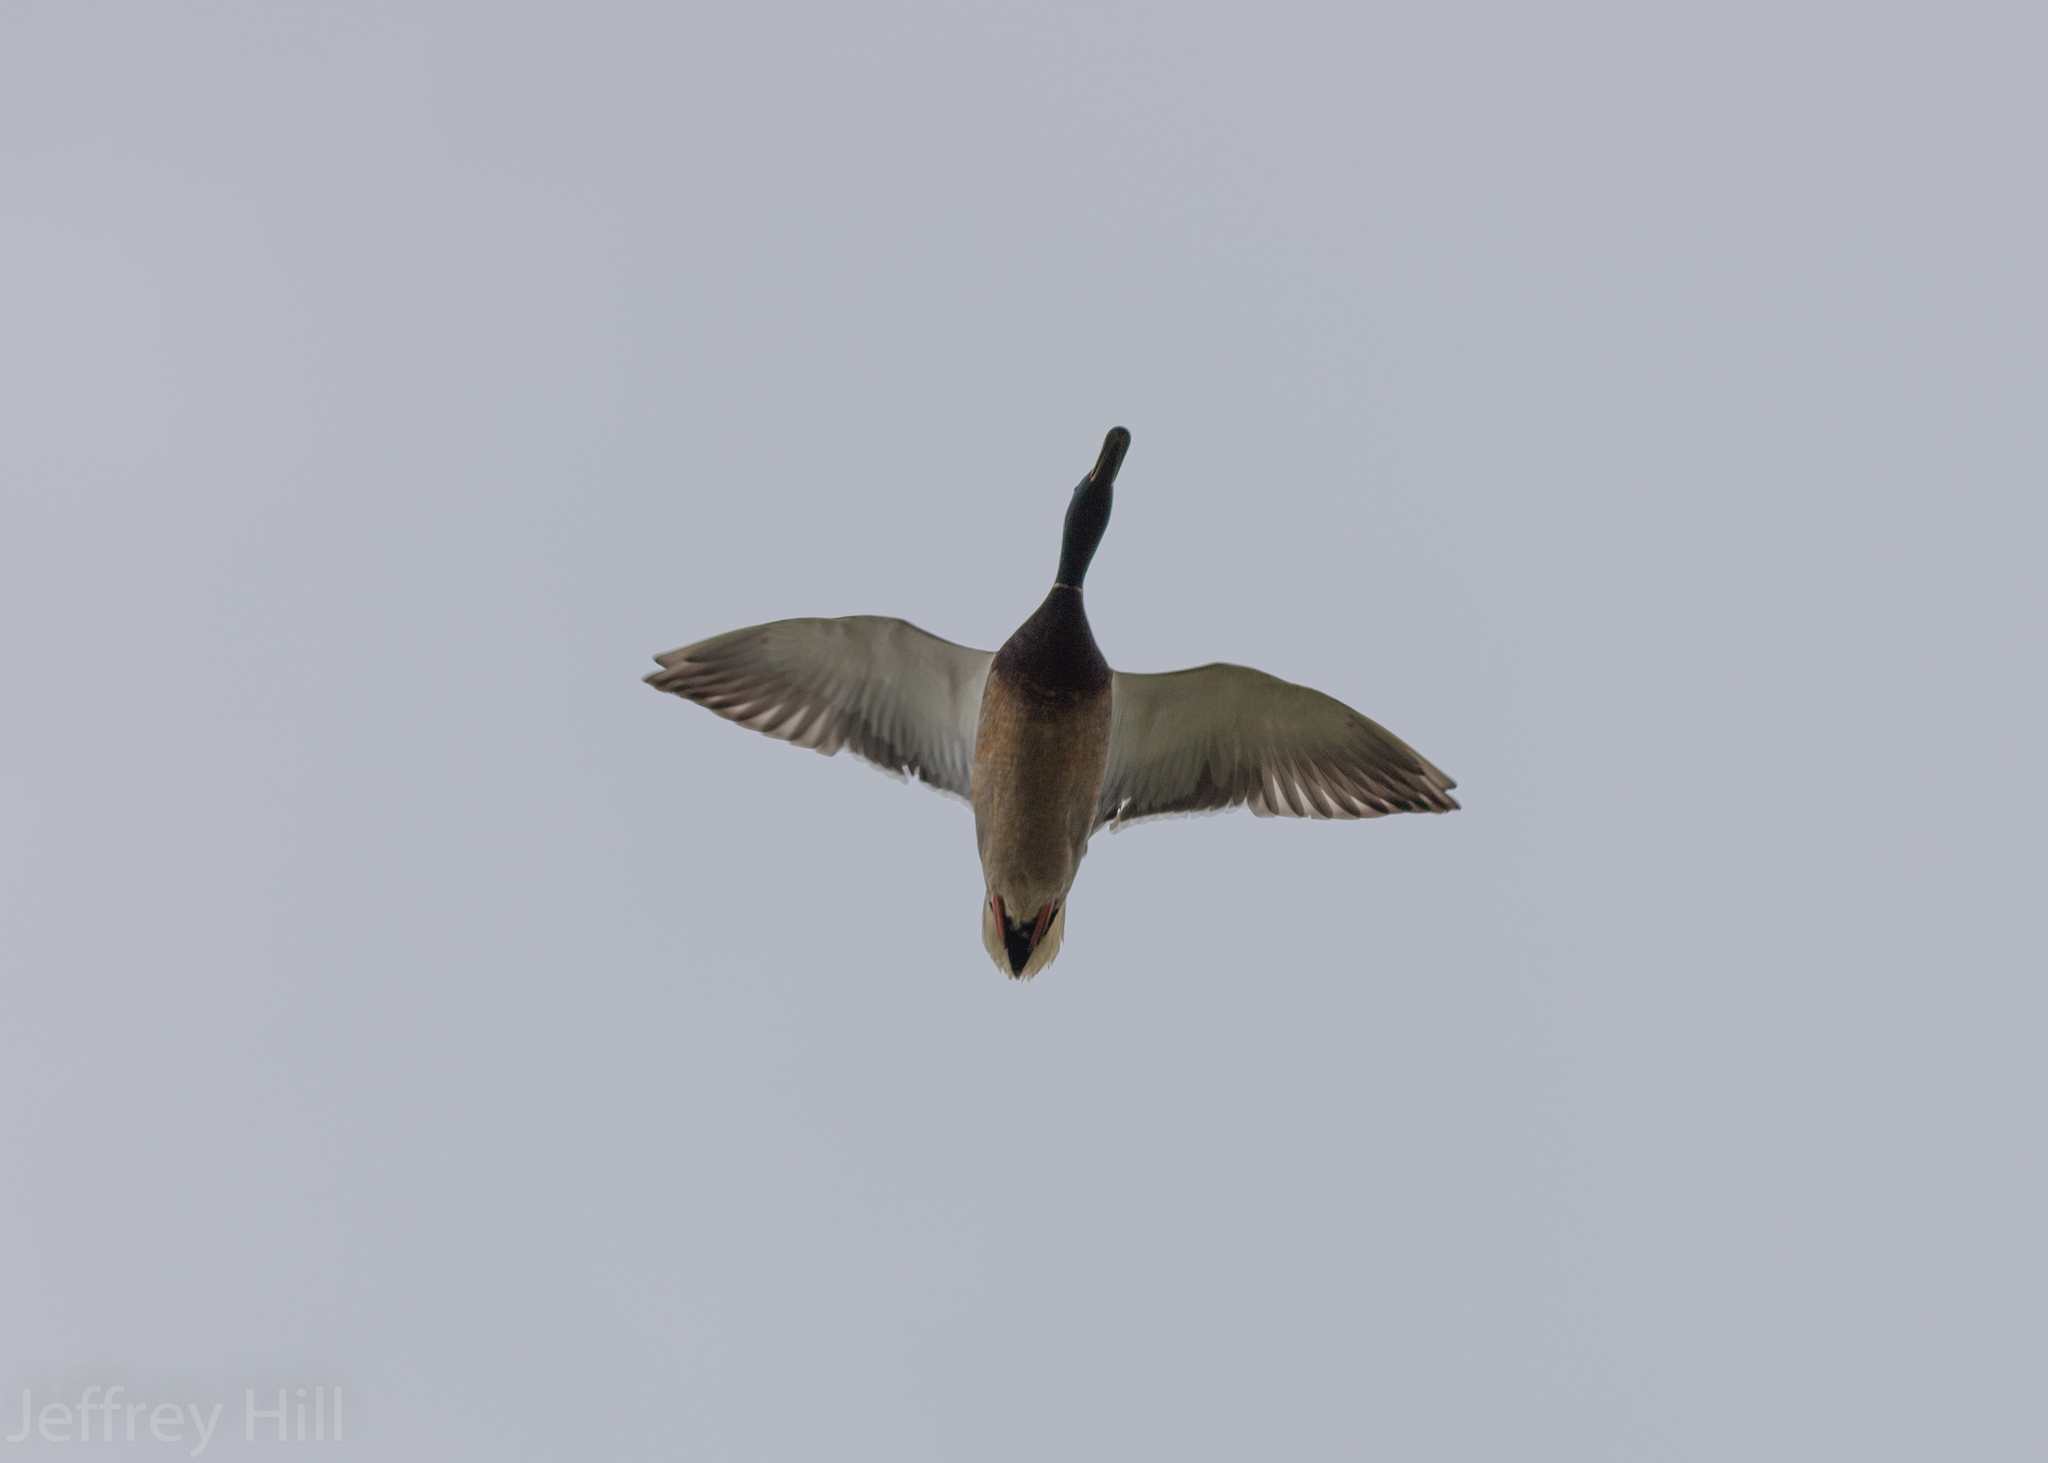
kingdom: Animalia
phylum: Chordata
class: Aves
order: Anseriformes
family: Anatidae
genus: Anas
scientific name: Anas platyrhynchos
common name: Mallard
